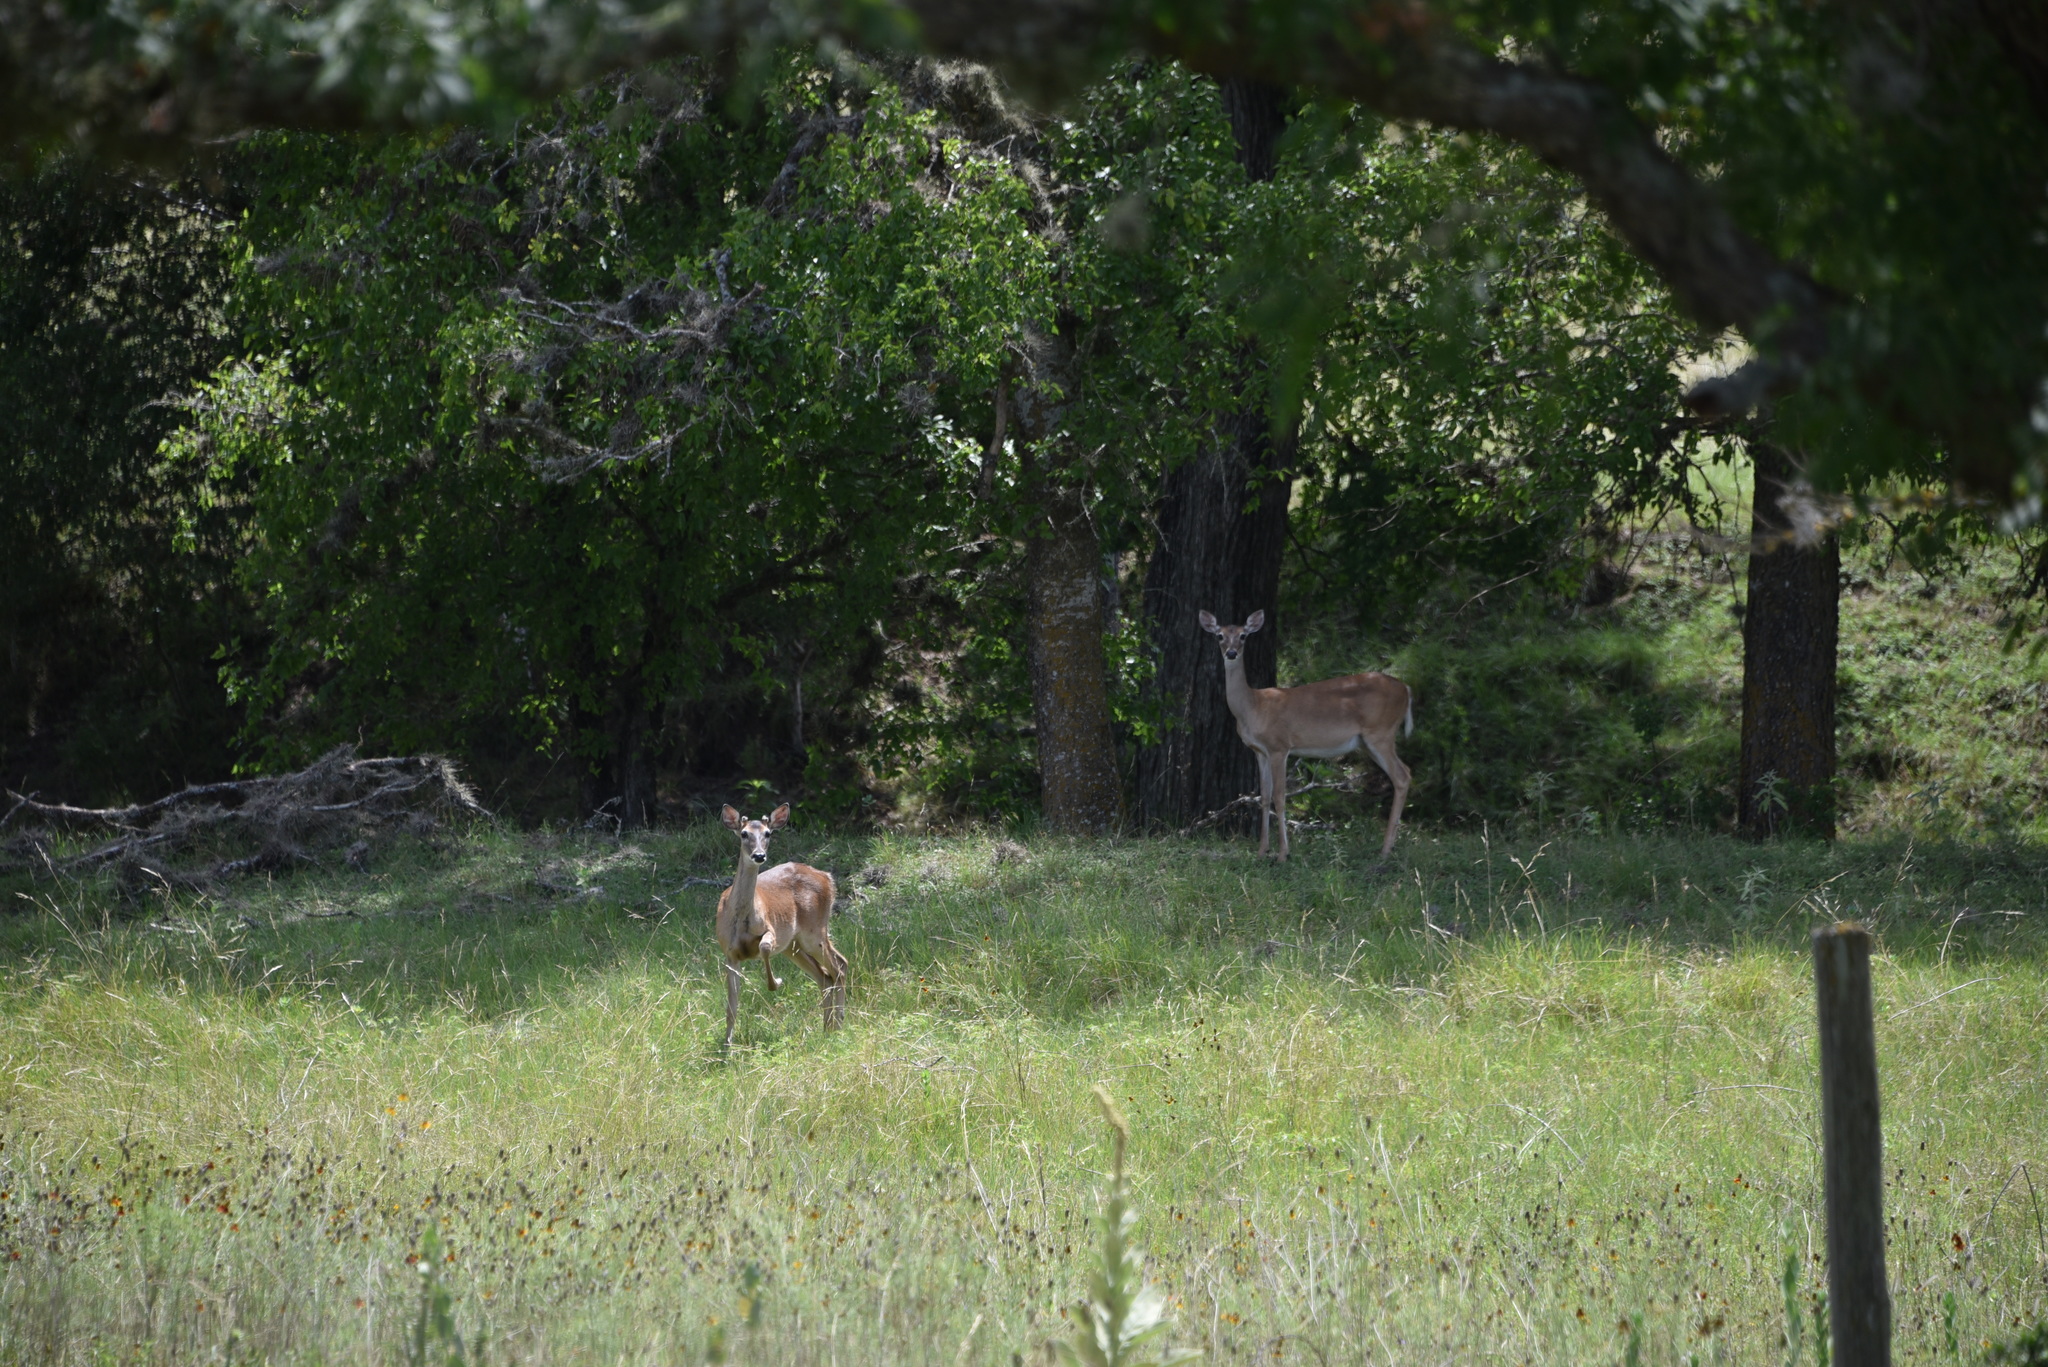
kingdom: Animalia
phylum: Chordata
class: Mammalia
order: Artiodactyla
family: Cervidae
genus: Odocoileus
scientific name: Odocoileus virginianus
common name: White-tailed deer
